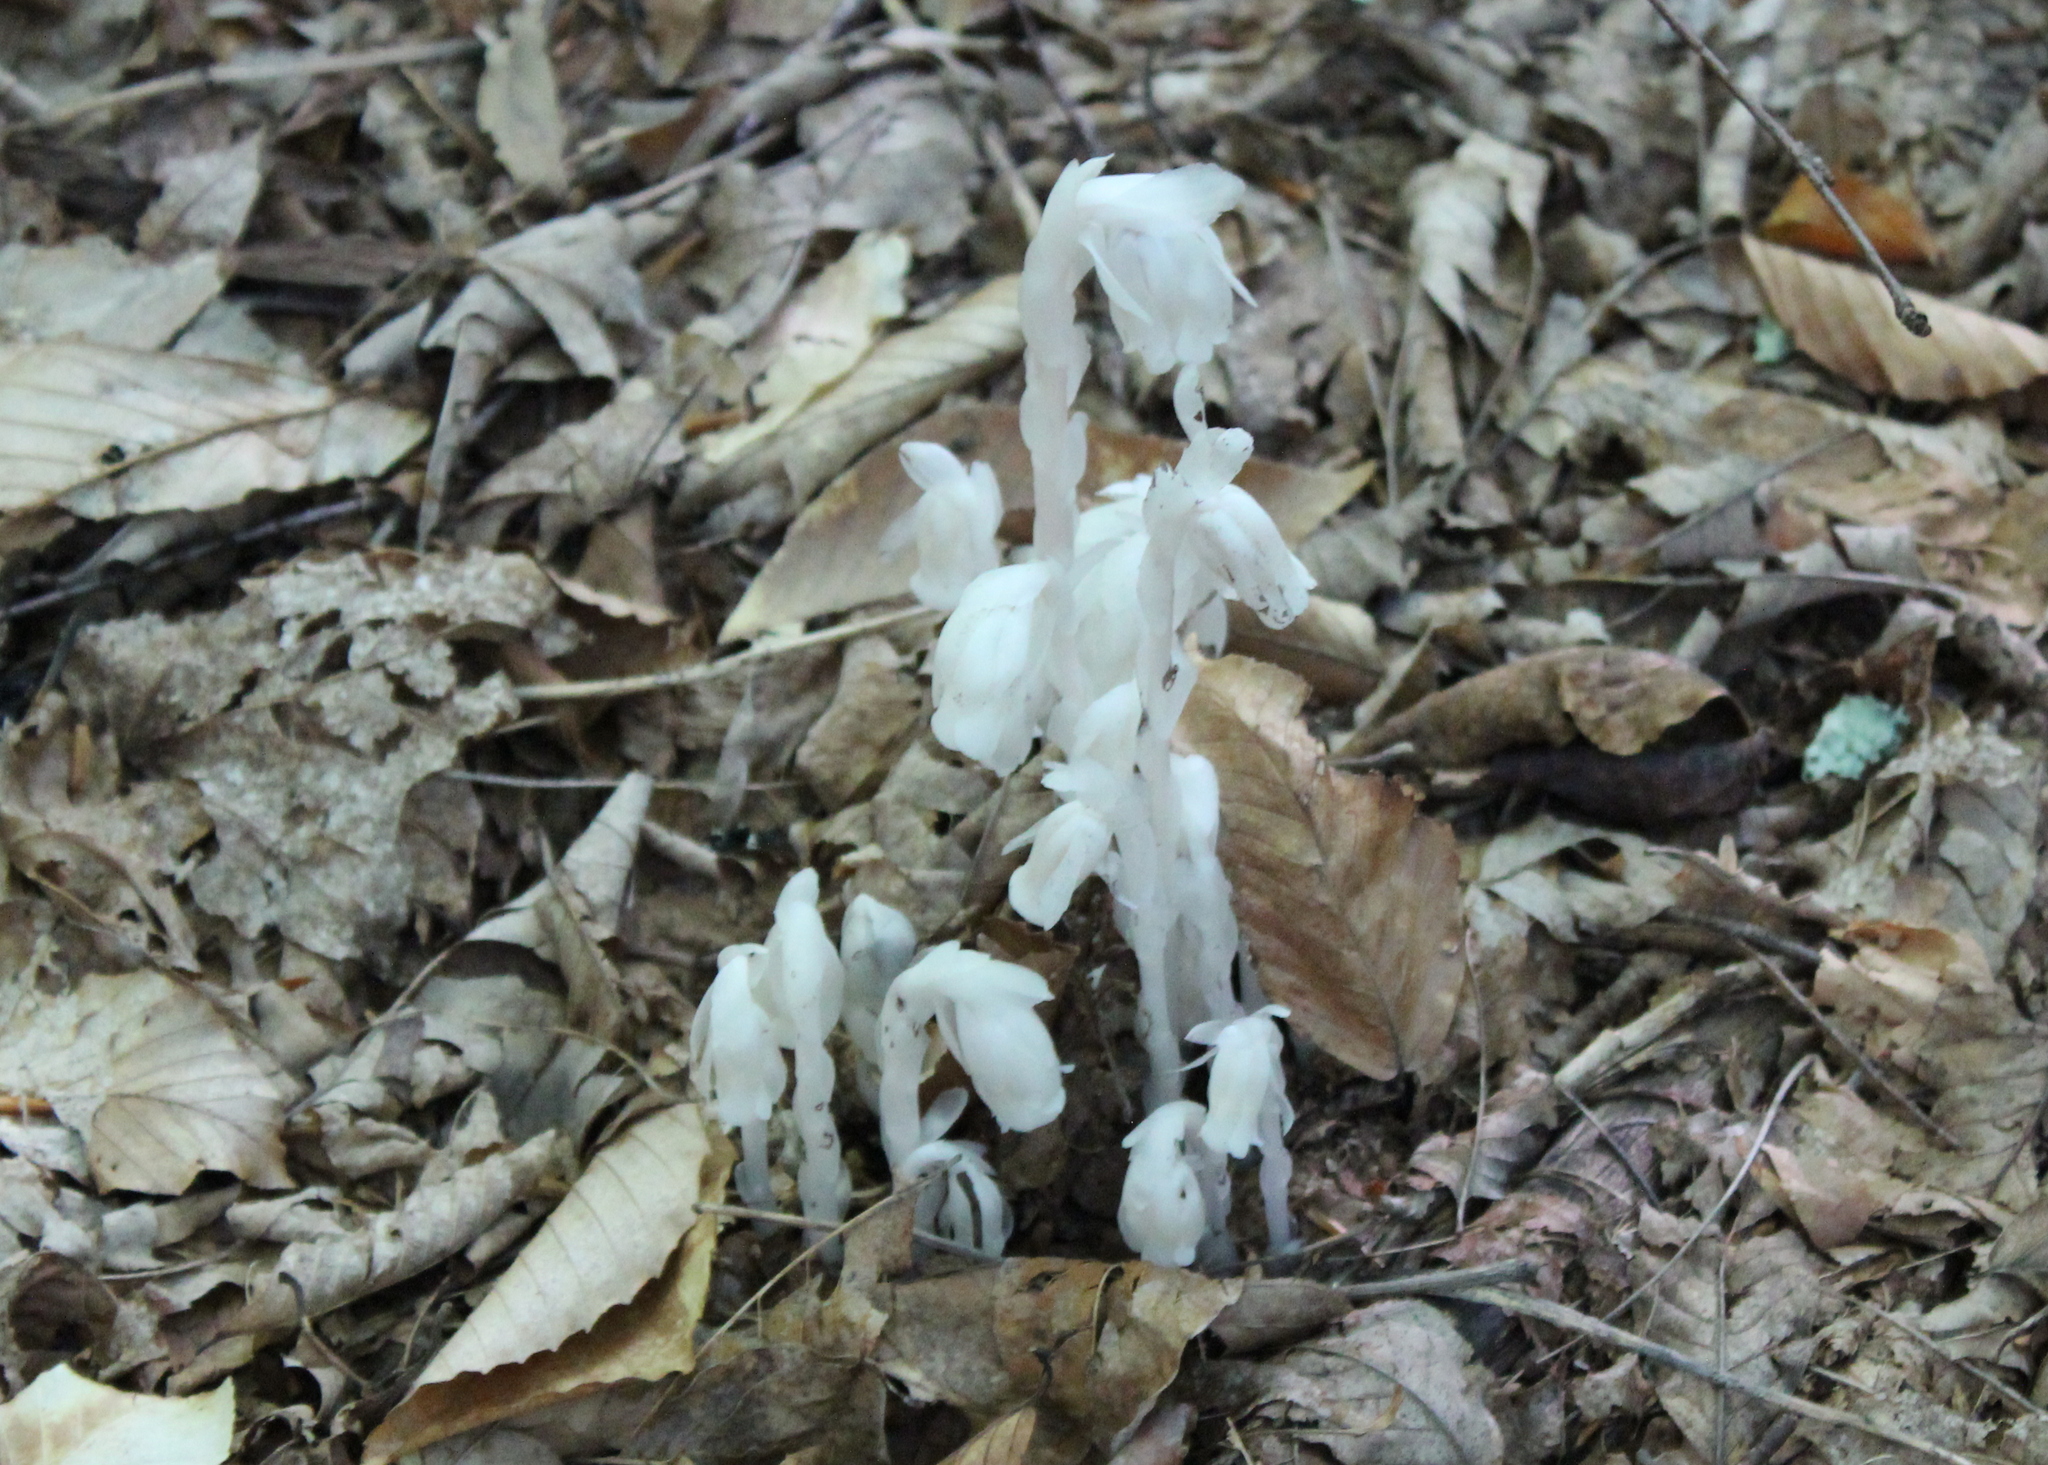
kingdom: Plantae
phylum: Tracheophyta
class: Magnoliopsida
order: Ericales
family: Ericaceae
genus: Monotropa
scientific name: Monotropa uniflora
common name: Convulsion root
